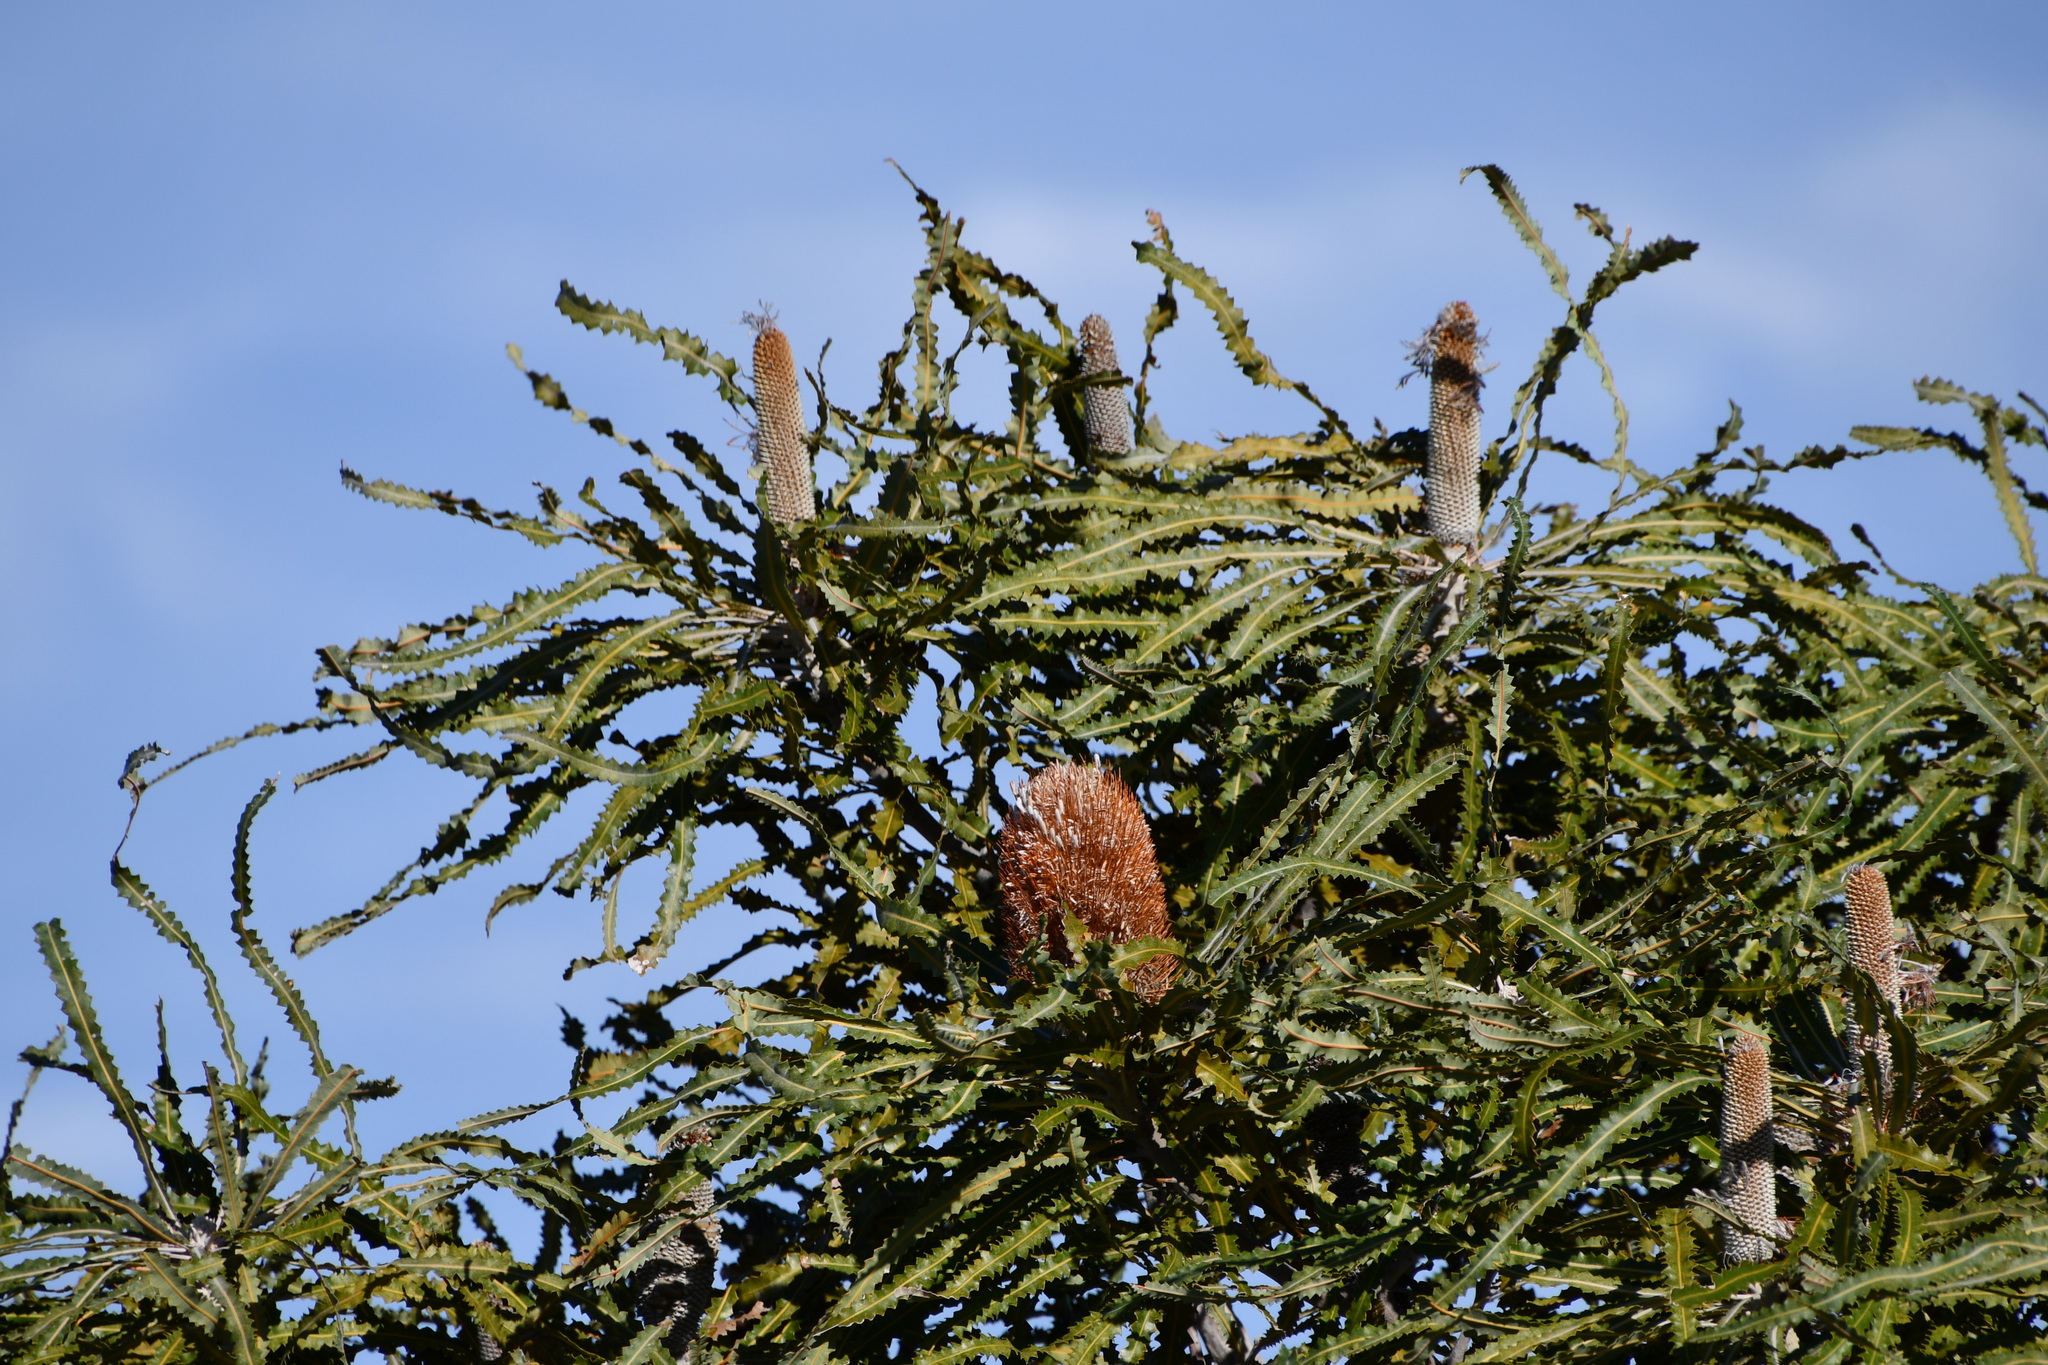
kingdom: Plantae
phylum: Tracheophyta
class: Magnoliopsida
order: Proteales
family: Proteaceae
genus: Banksia
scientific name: Banksia prionotes
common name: Acorn banksia
